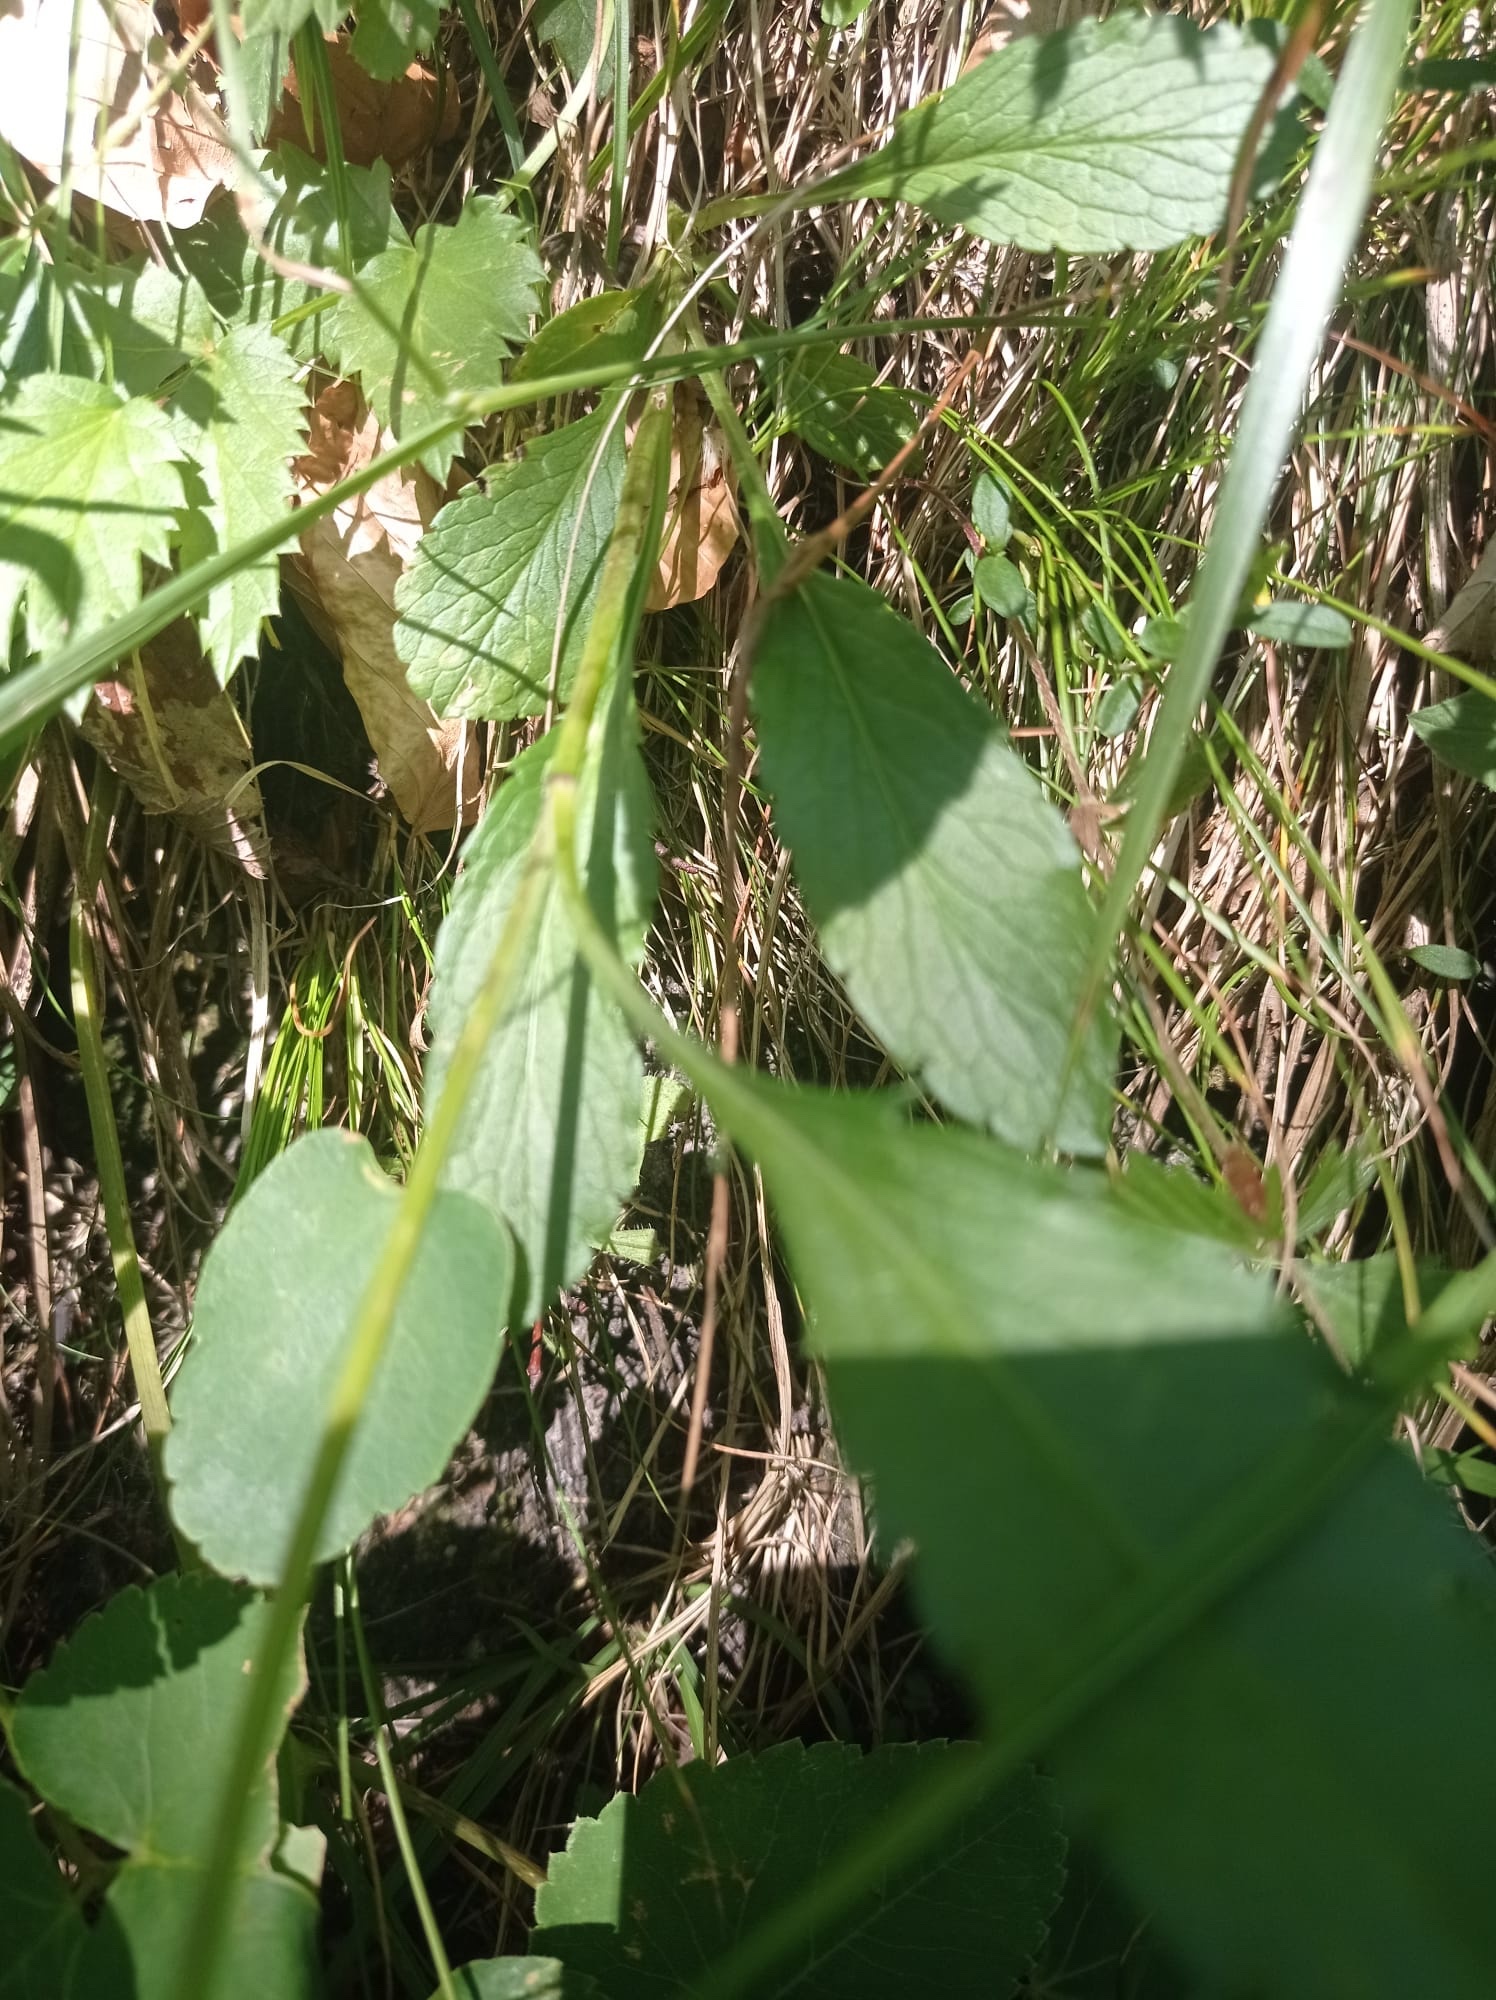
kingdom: Plantae
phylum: Tracheophyta
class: Magnoliopsida
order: Asterales
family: Asteraceae
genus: Centaurea
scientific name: Centaurea scabiosa
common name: Greater knapweed
